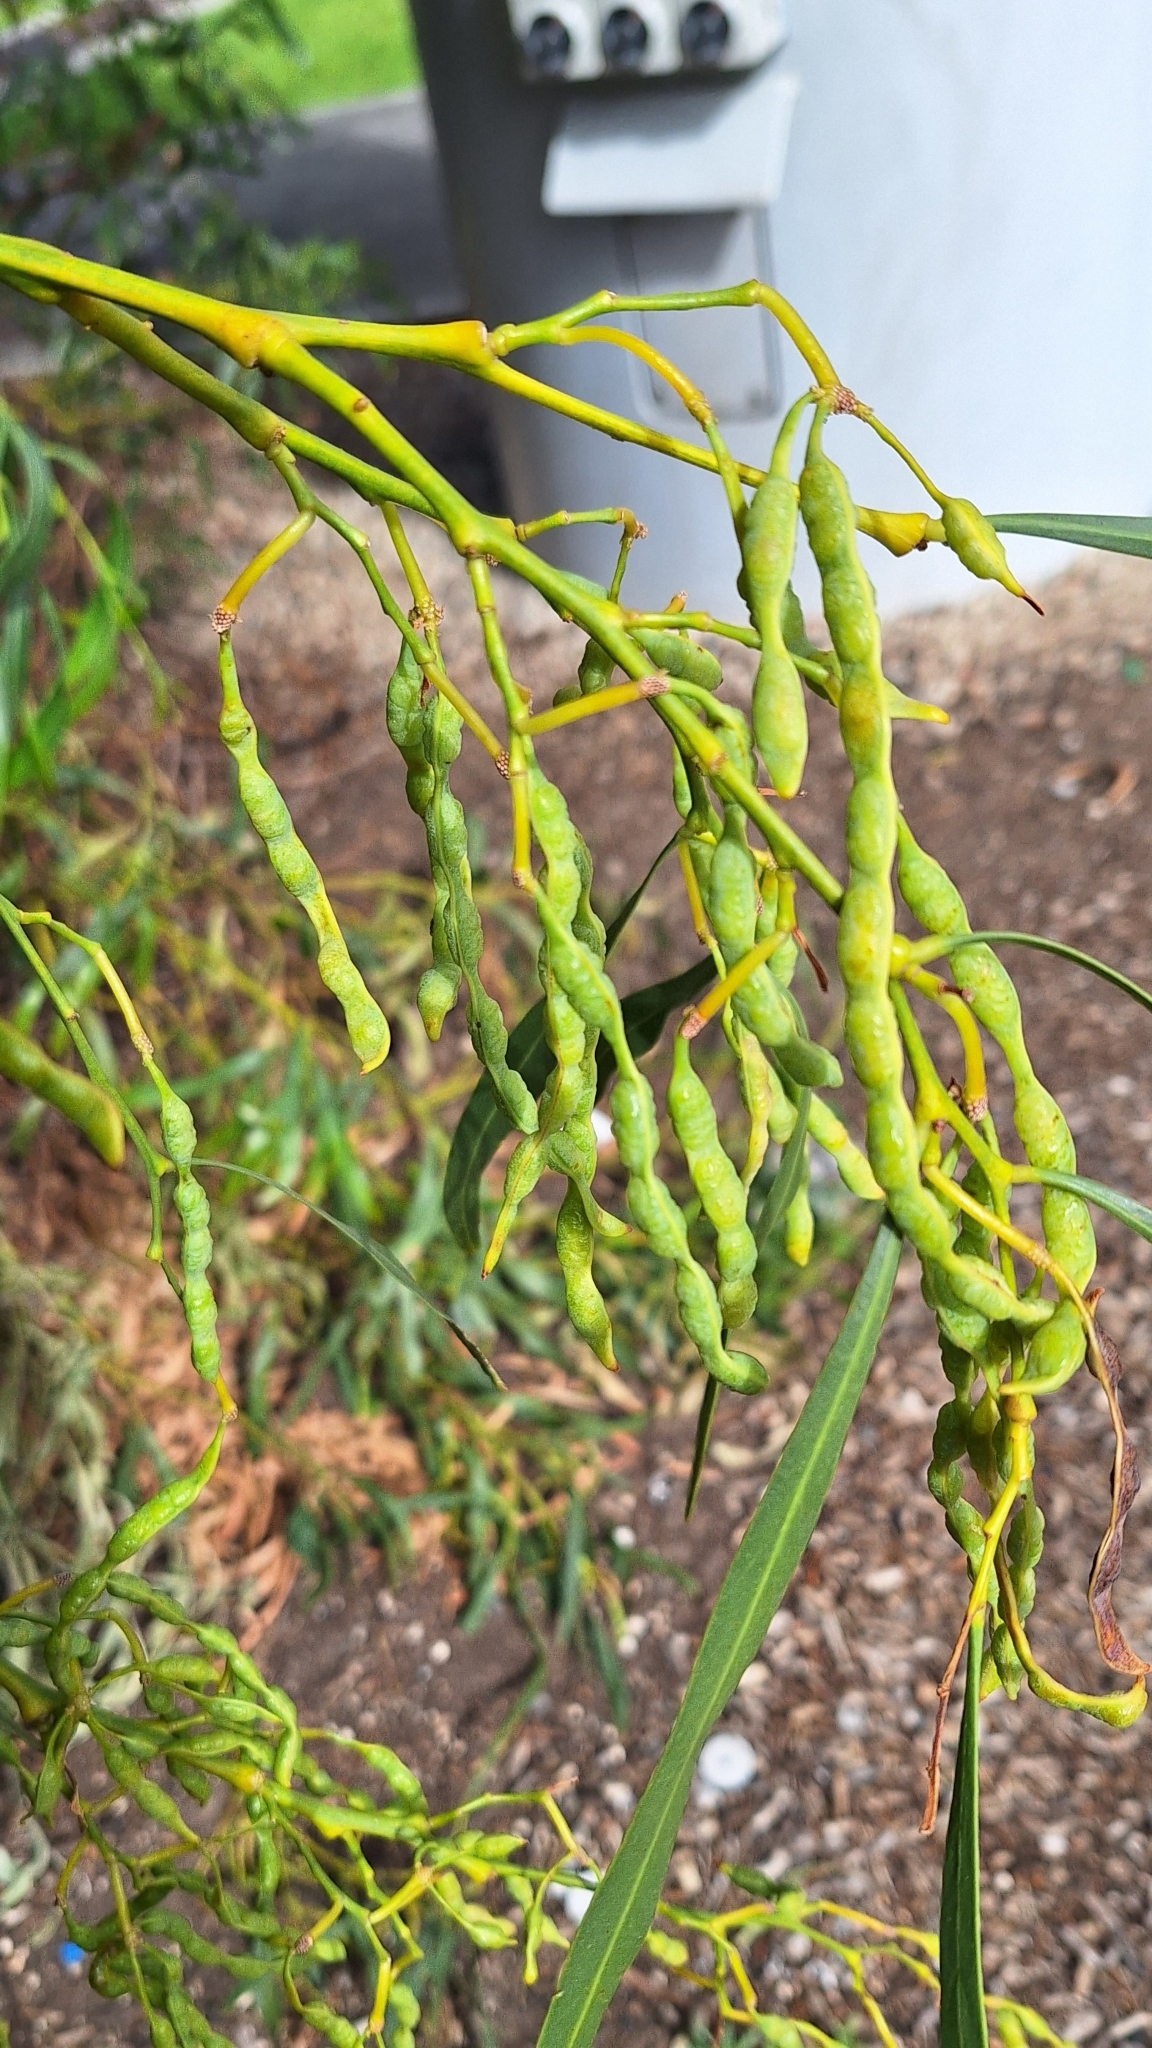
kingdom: Plantae
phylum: Tracheophyta
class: Magnoliopsida
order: Fabales
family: Fabaceae
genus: Acacia
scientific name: Acacia saligna
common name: Orange wattle
